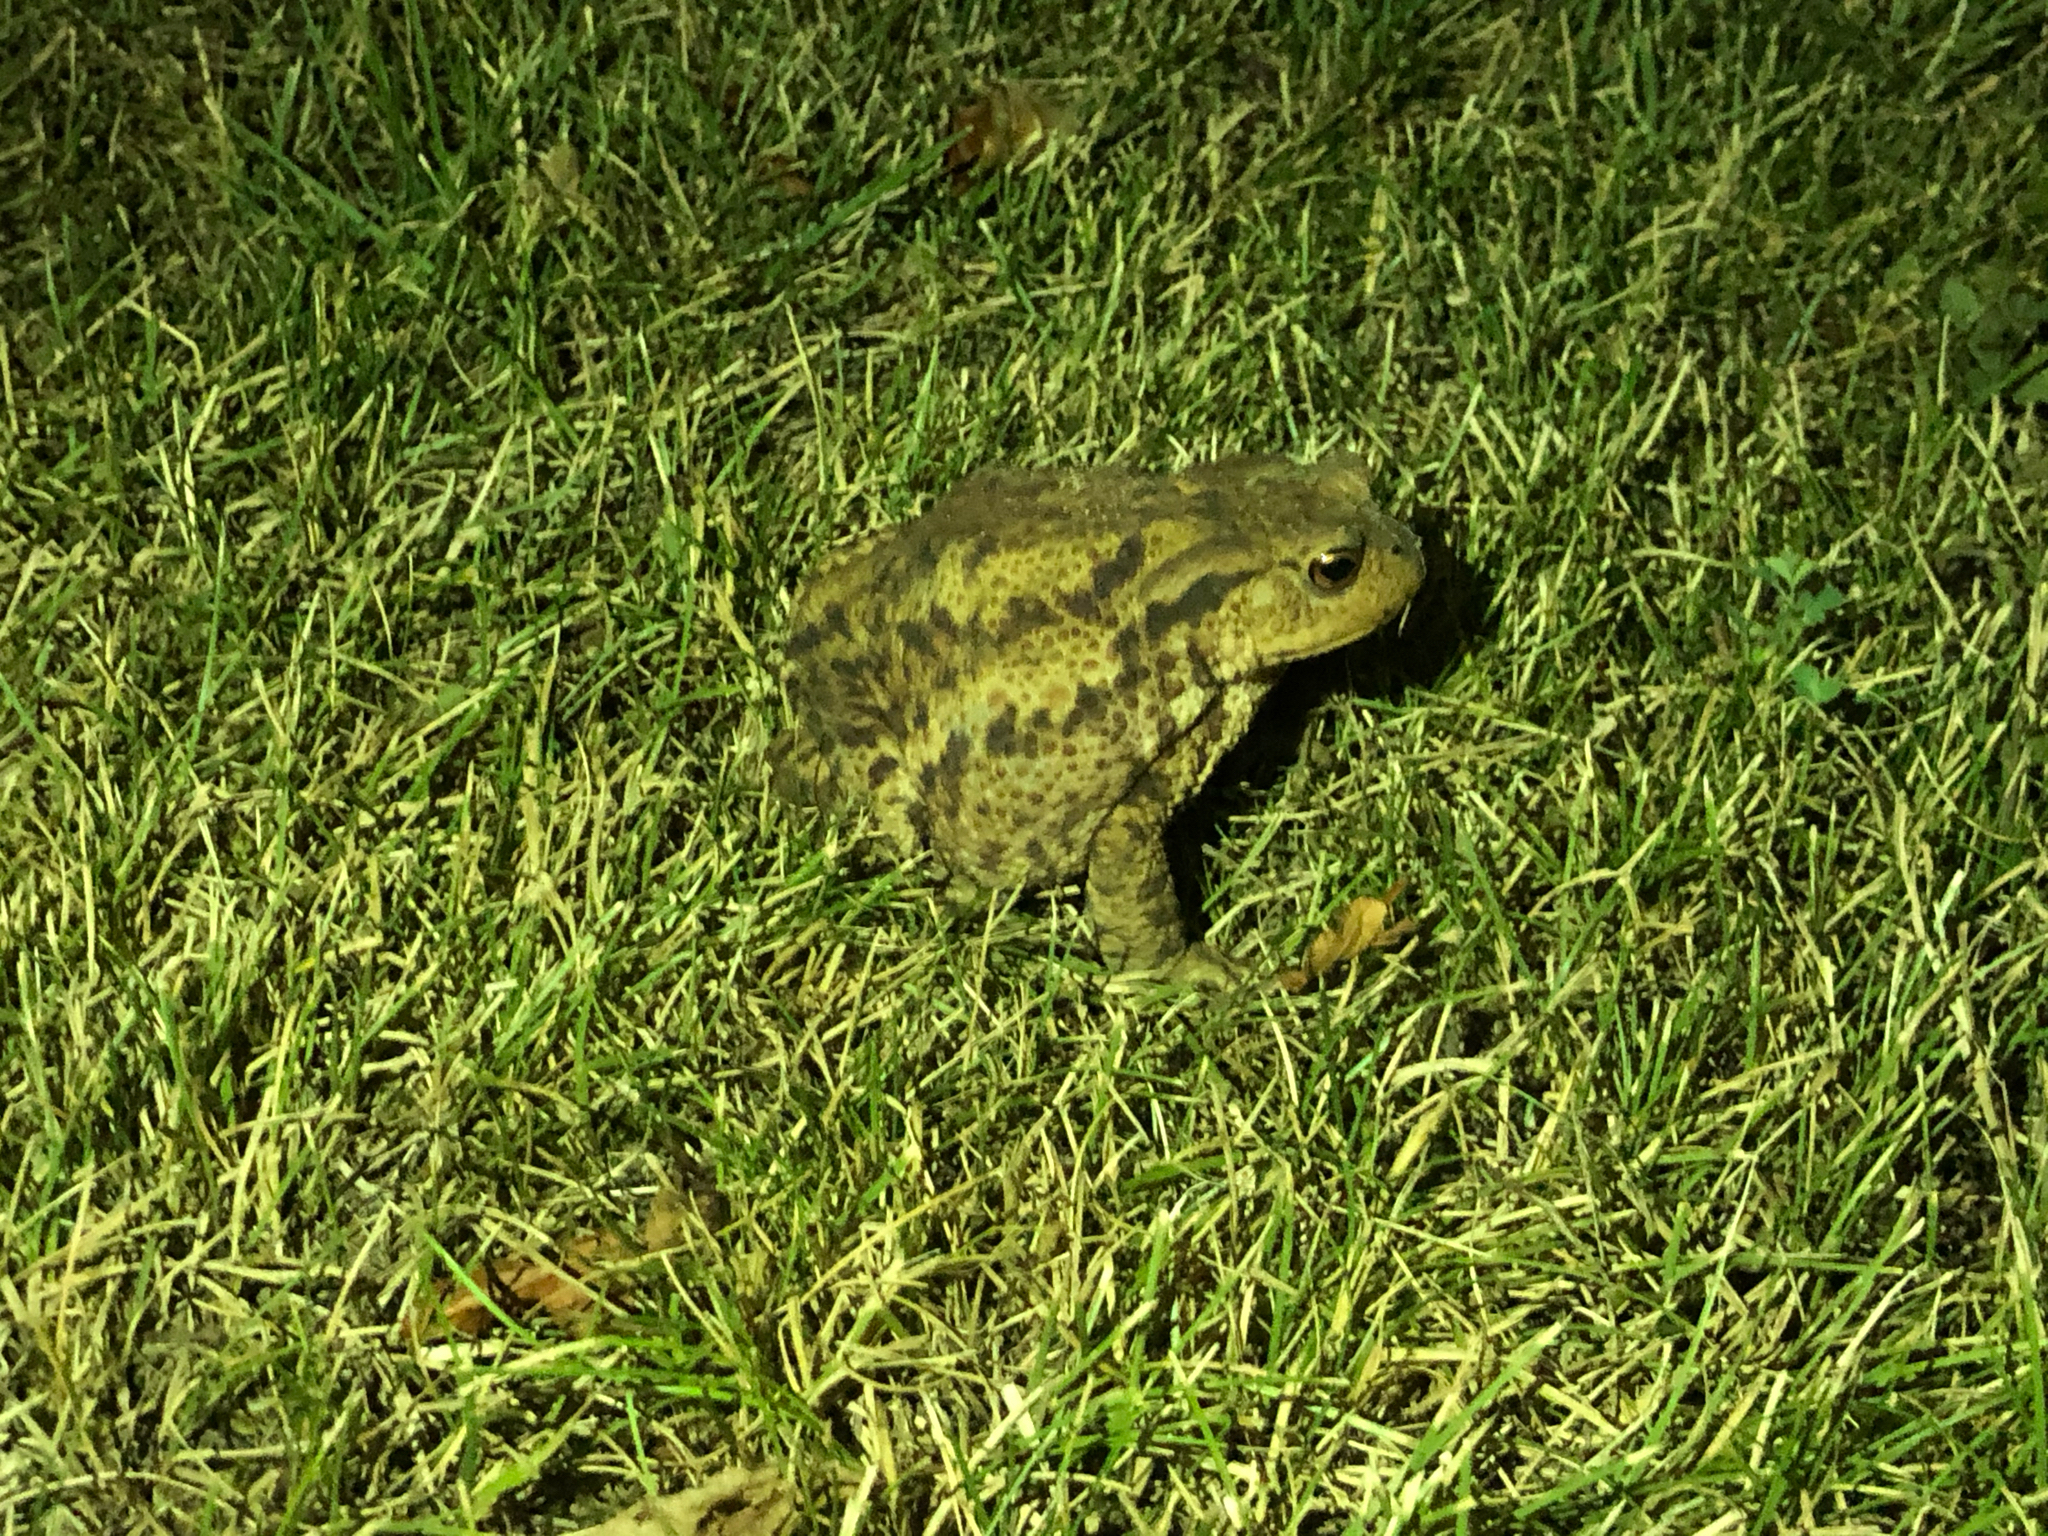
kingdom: Animalia
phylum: Chordata
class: Amphibia
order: Anura
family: Bufonidae
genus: Bufo
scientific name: Bufo bufo
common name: Common toad
